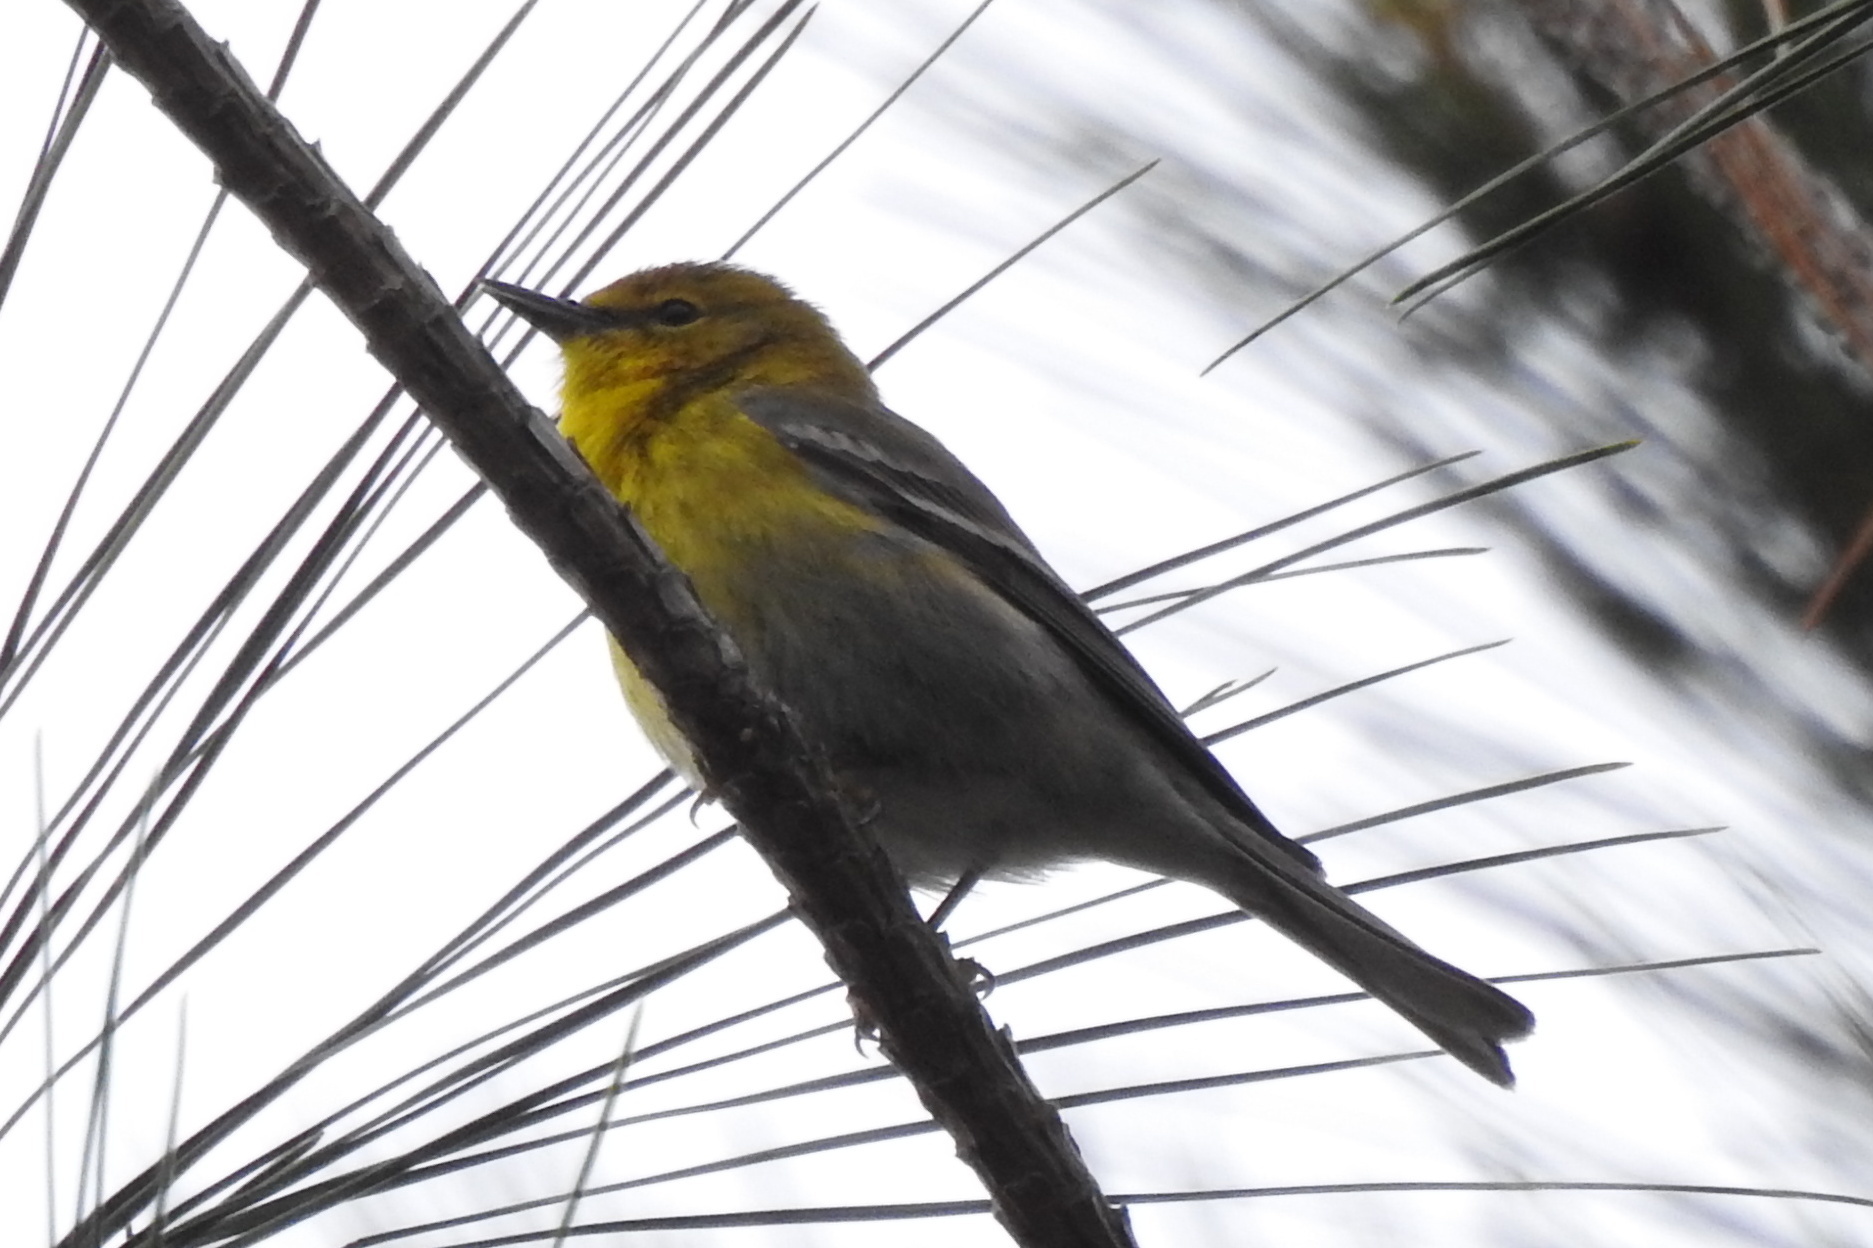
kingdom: Animalia
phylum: Chordata
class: Aves
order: Passeriformes
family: Parulidae
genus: Setophaga
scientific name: Setophaga pinus
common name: Pine warbler
